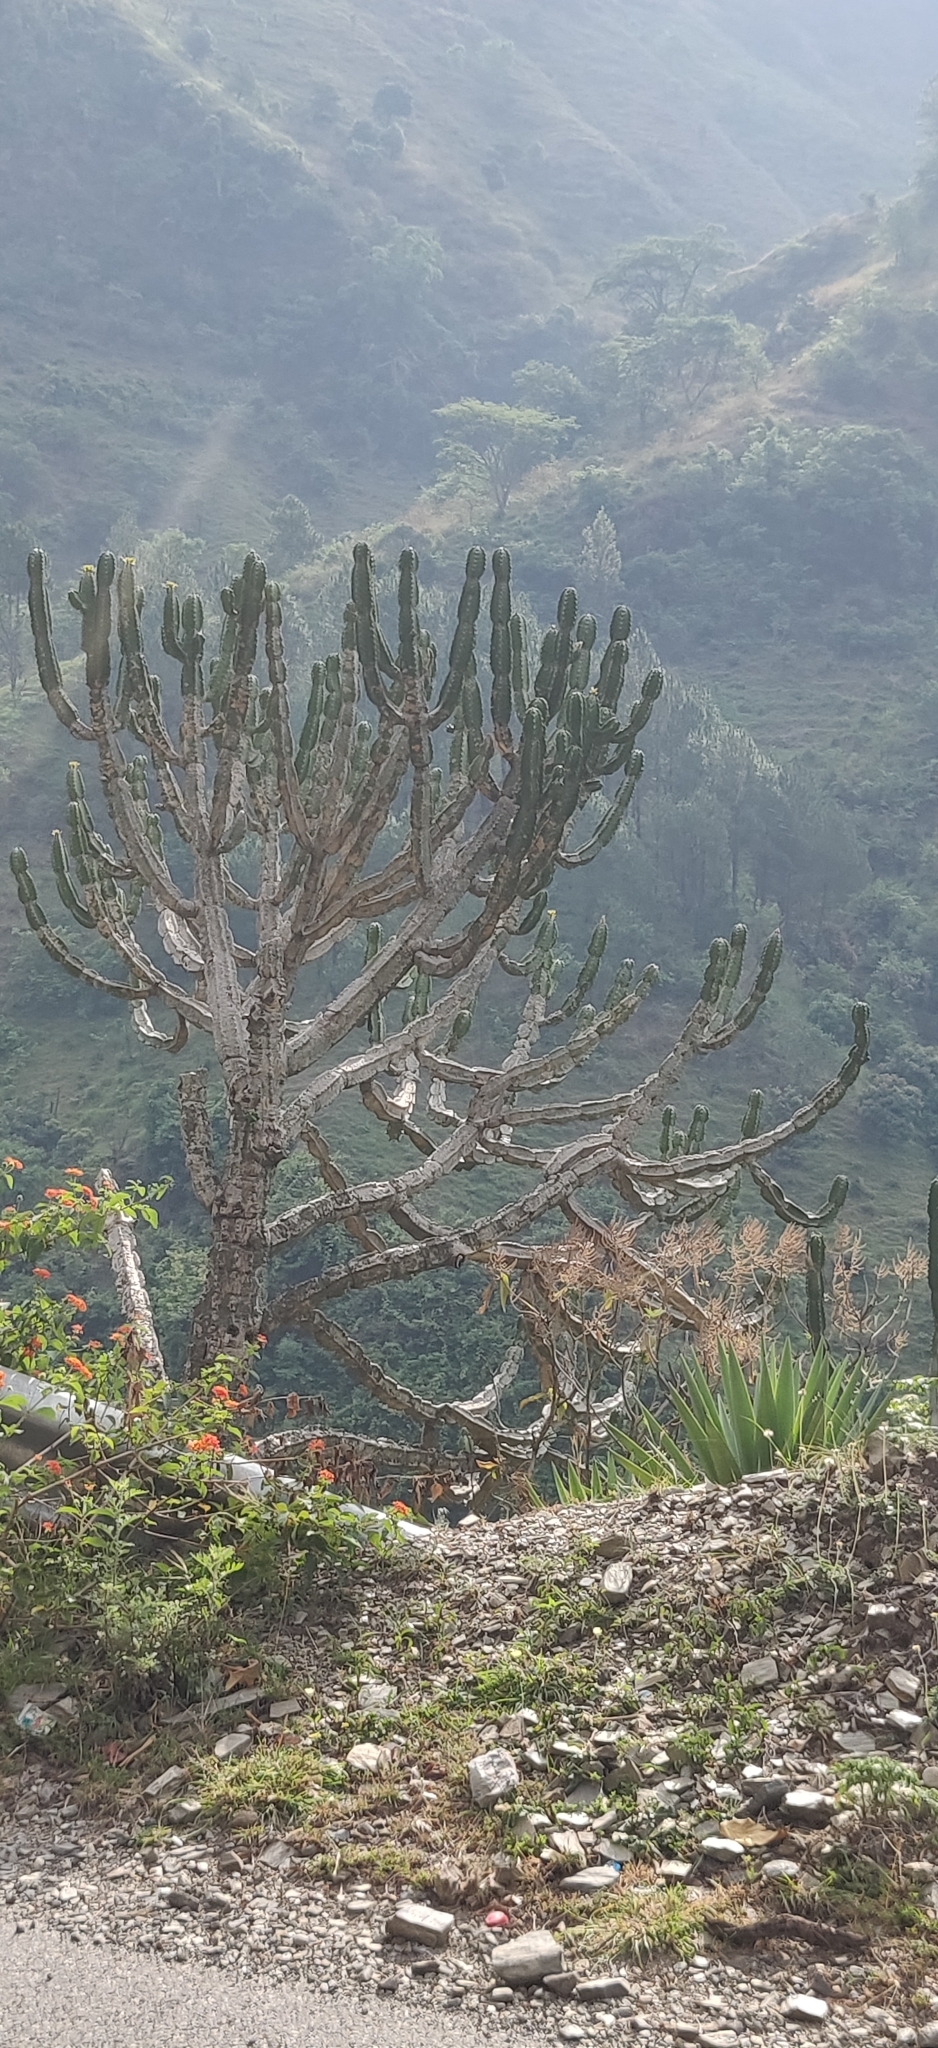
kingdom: Plantae
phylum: Tracheophyta
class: Magnoliopsida
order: Malpighiales
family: Euphorbiaceae
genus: Euphorbia
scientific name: Euphorbia royleana
